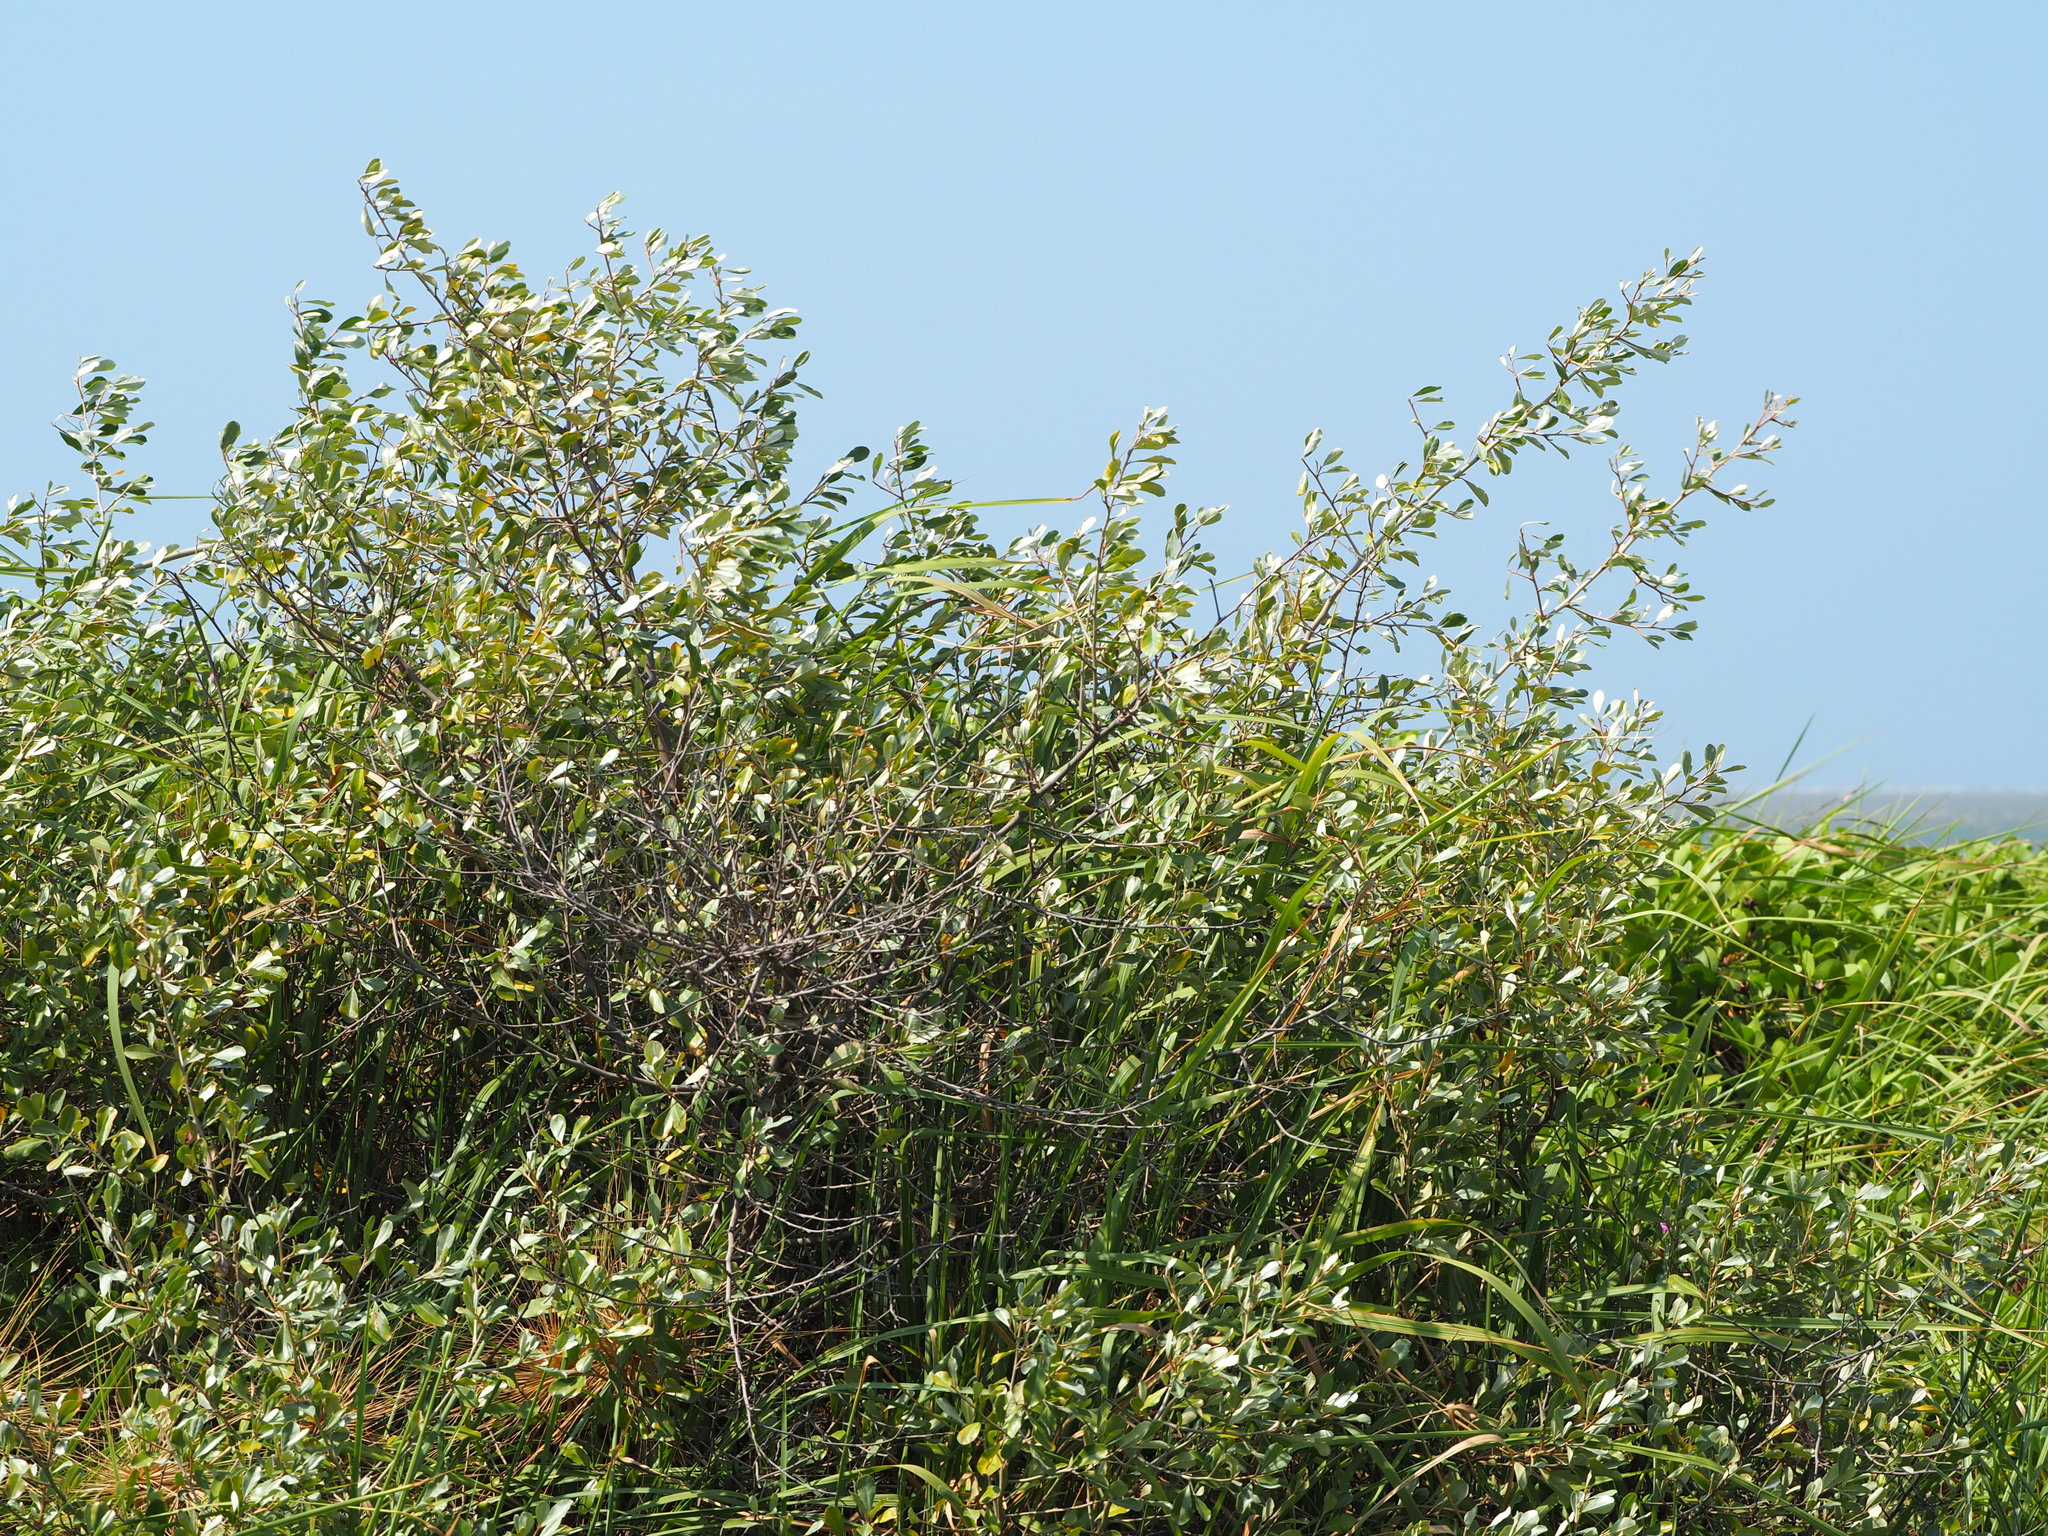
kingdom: Plantae
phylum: Tracheophyta
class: Magnoliopsida
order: Rosales
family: Elaeagnaceae
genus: Elaeagnus
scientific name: Elaeagnus oldhamii
